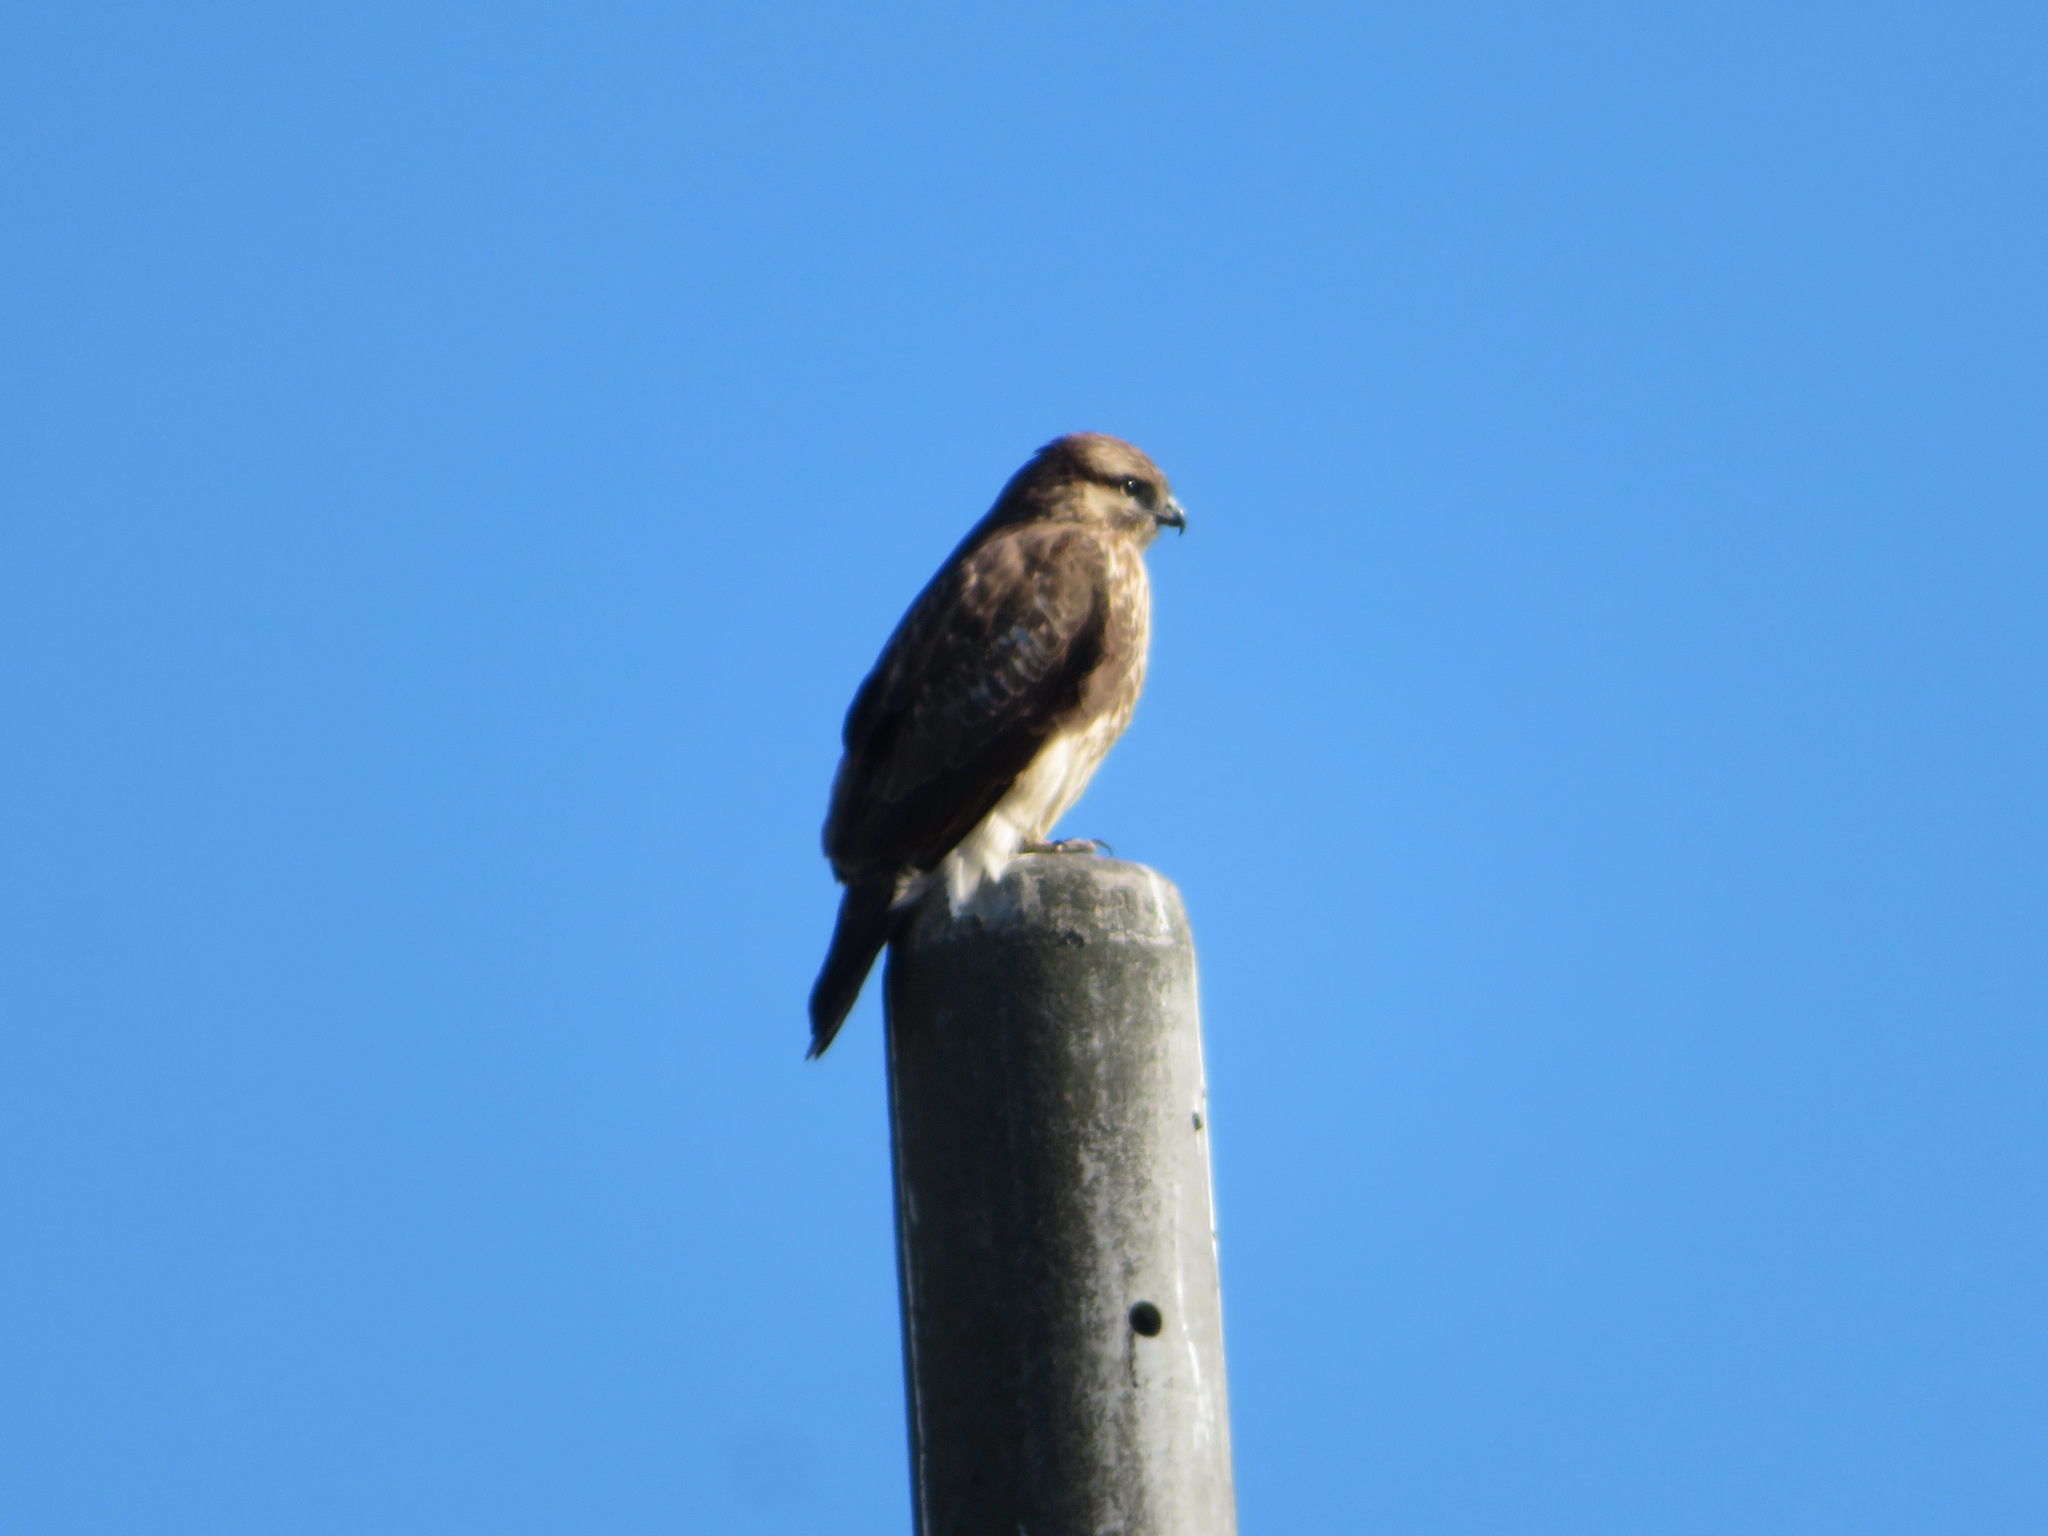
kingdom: Animalia
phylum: Chordata
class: Aves
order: Accipitriformes
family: Accipitridae
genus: Buteo
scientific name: Buteo japonicus
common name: Eastern buzzard
